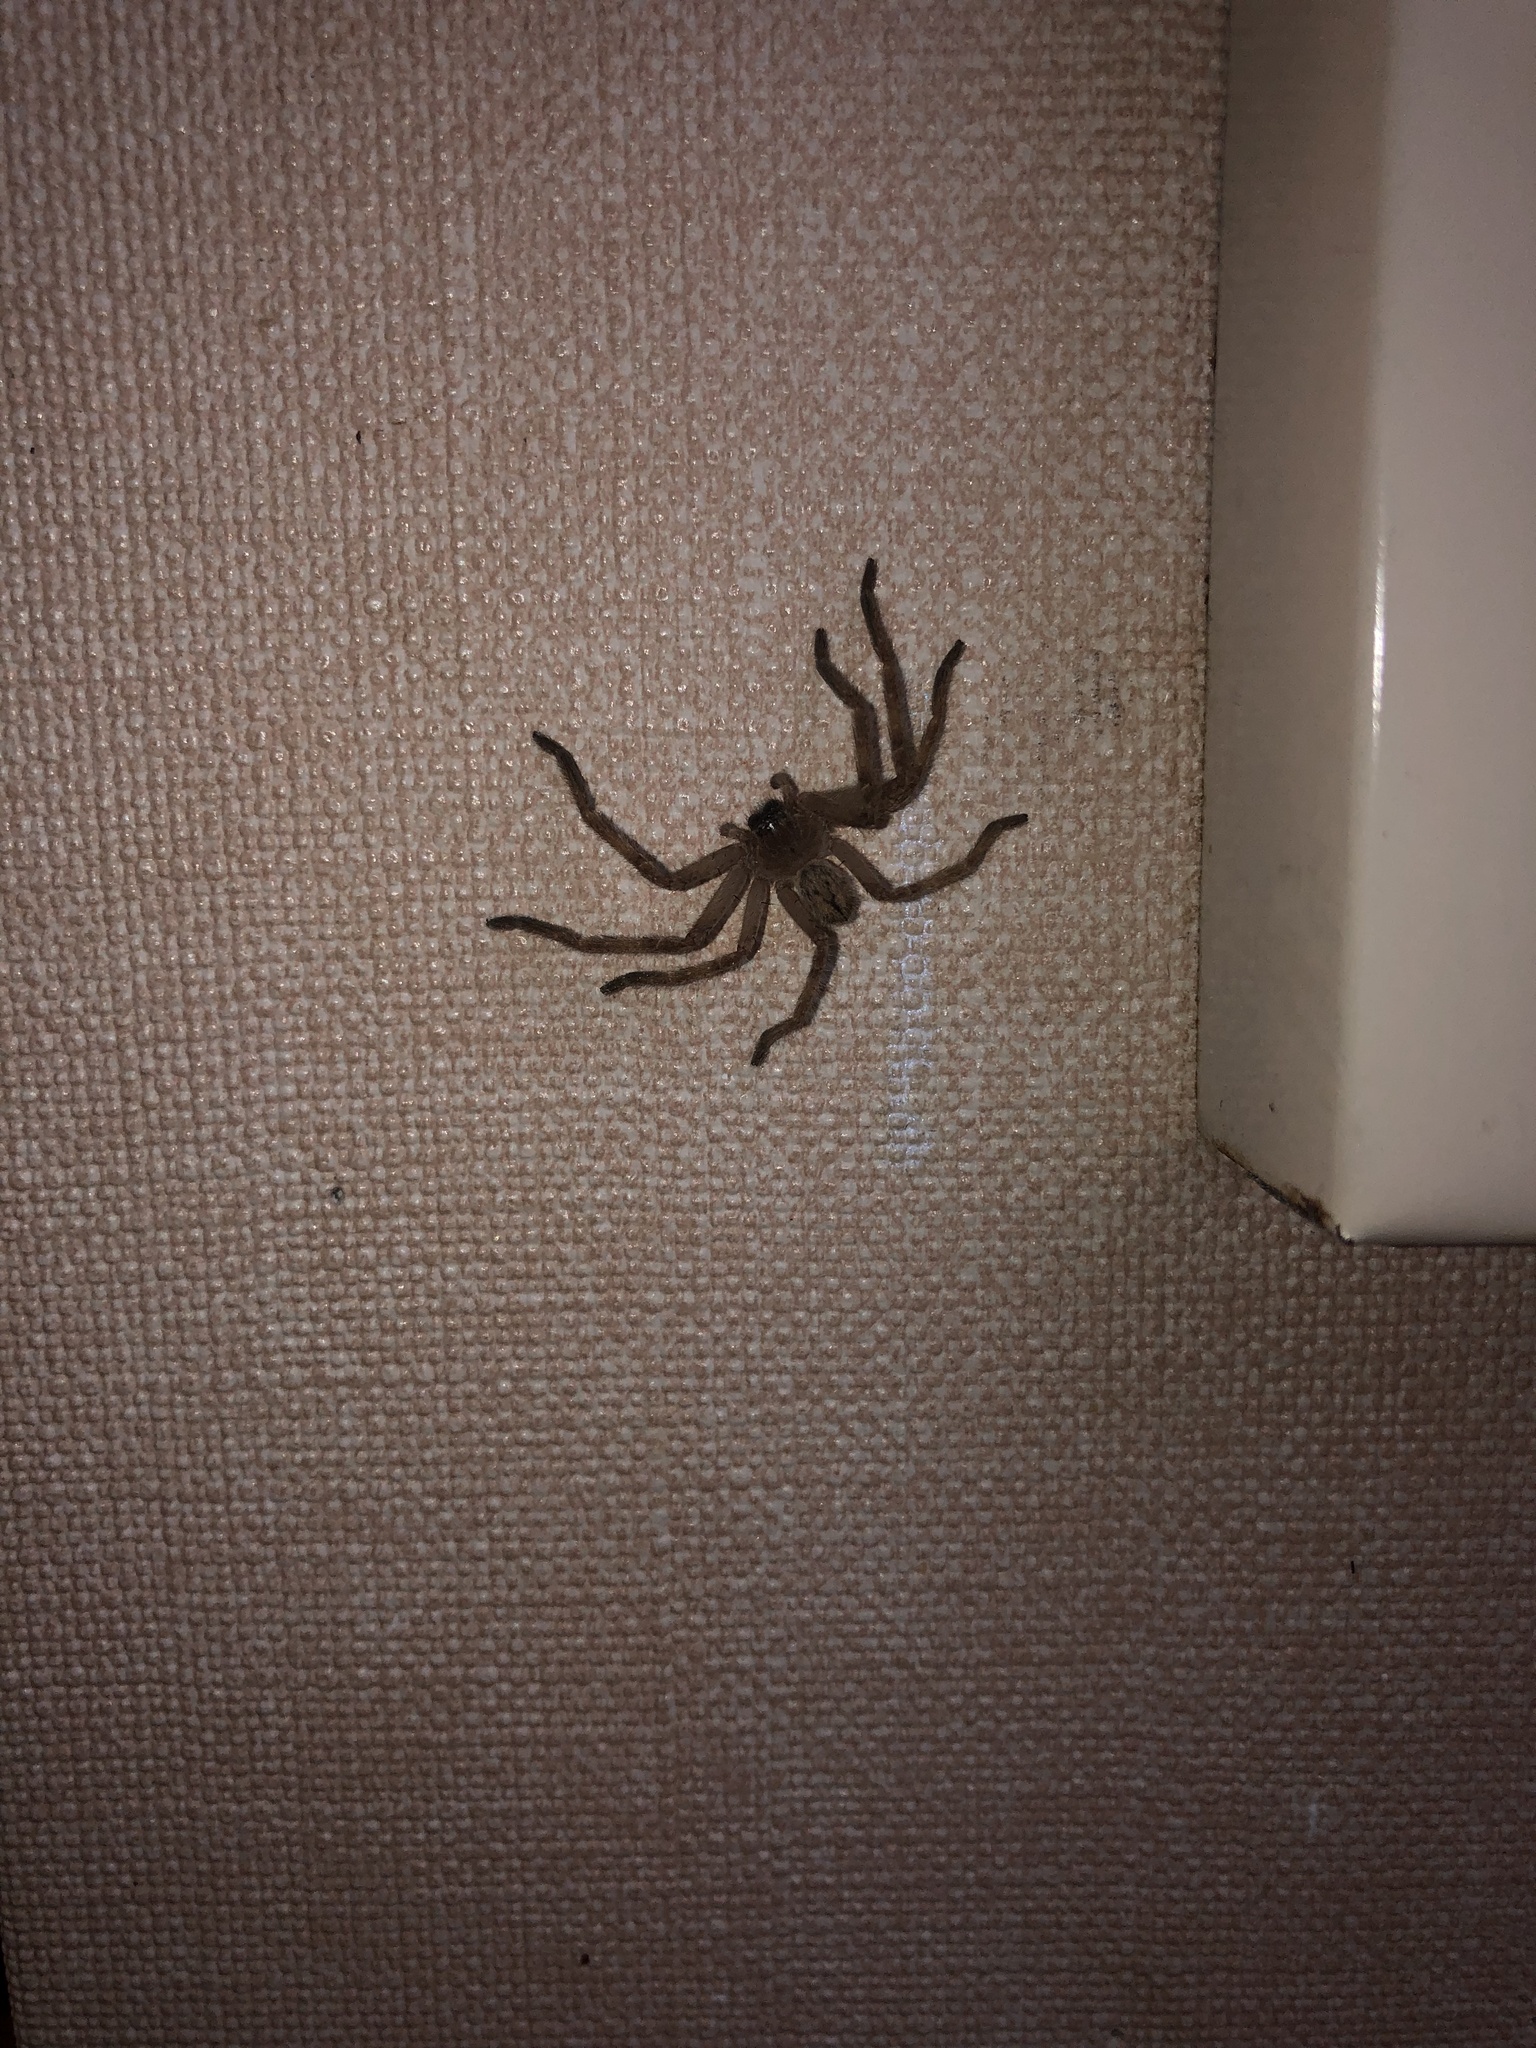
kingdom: Animalia
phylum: Arthropoda
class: Arachnida
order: Araneae
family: Sparassidae
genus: Olios
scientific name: Olios giganteus
